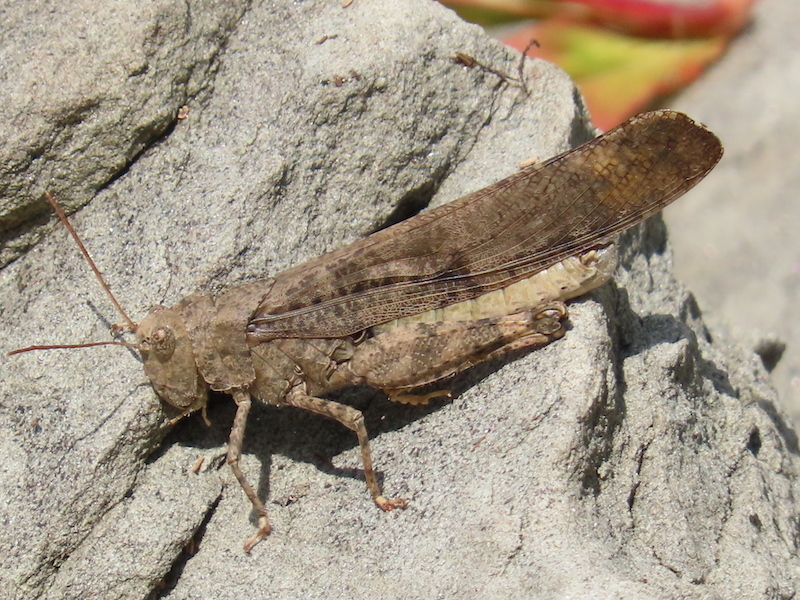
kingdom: Animalia
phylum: Arthropoda
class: Insecta
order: Orthoptera
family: Acrididae
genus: Dissosteira
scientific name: Dissosteira carolina
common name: Carolina grasshopper
